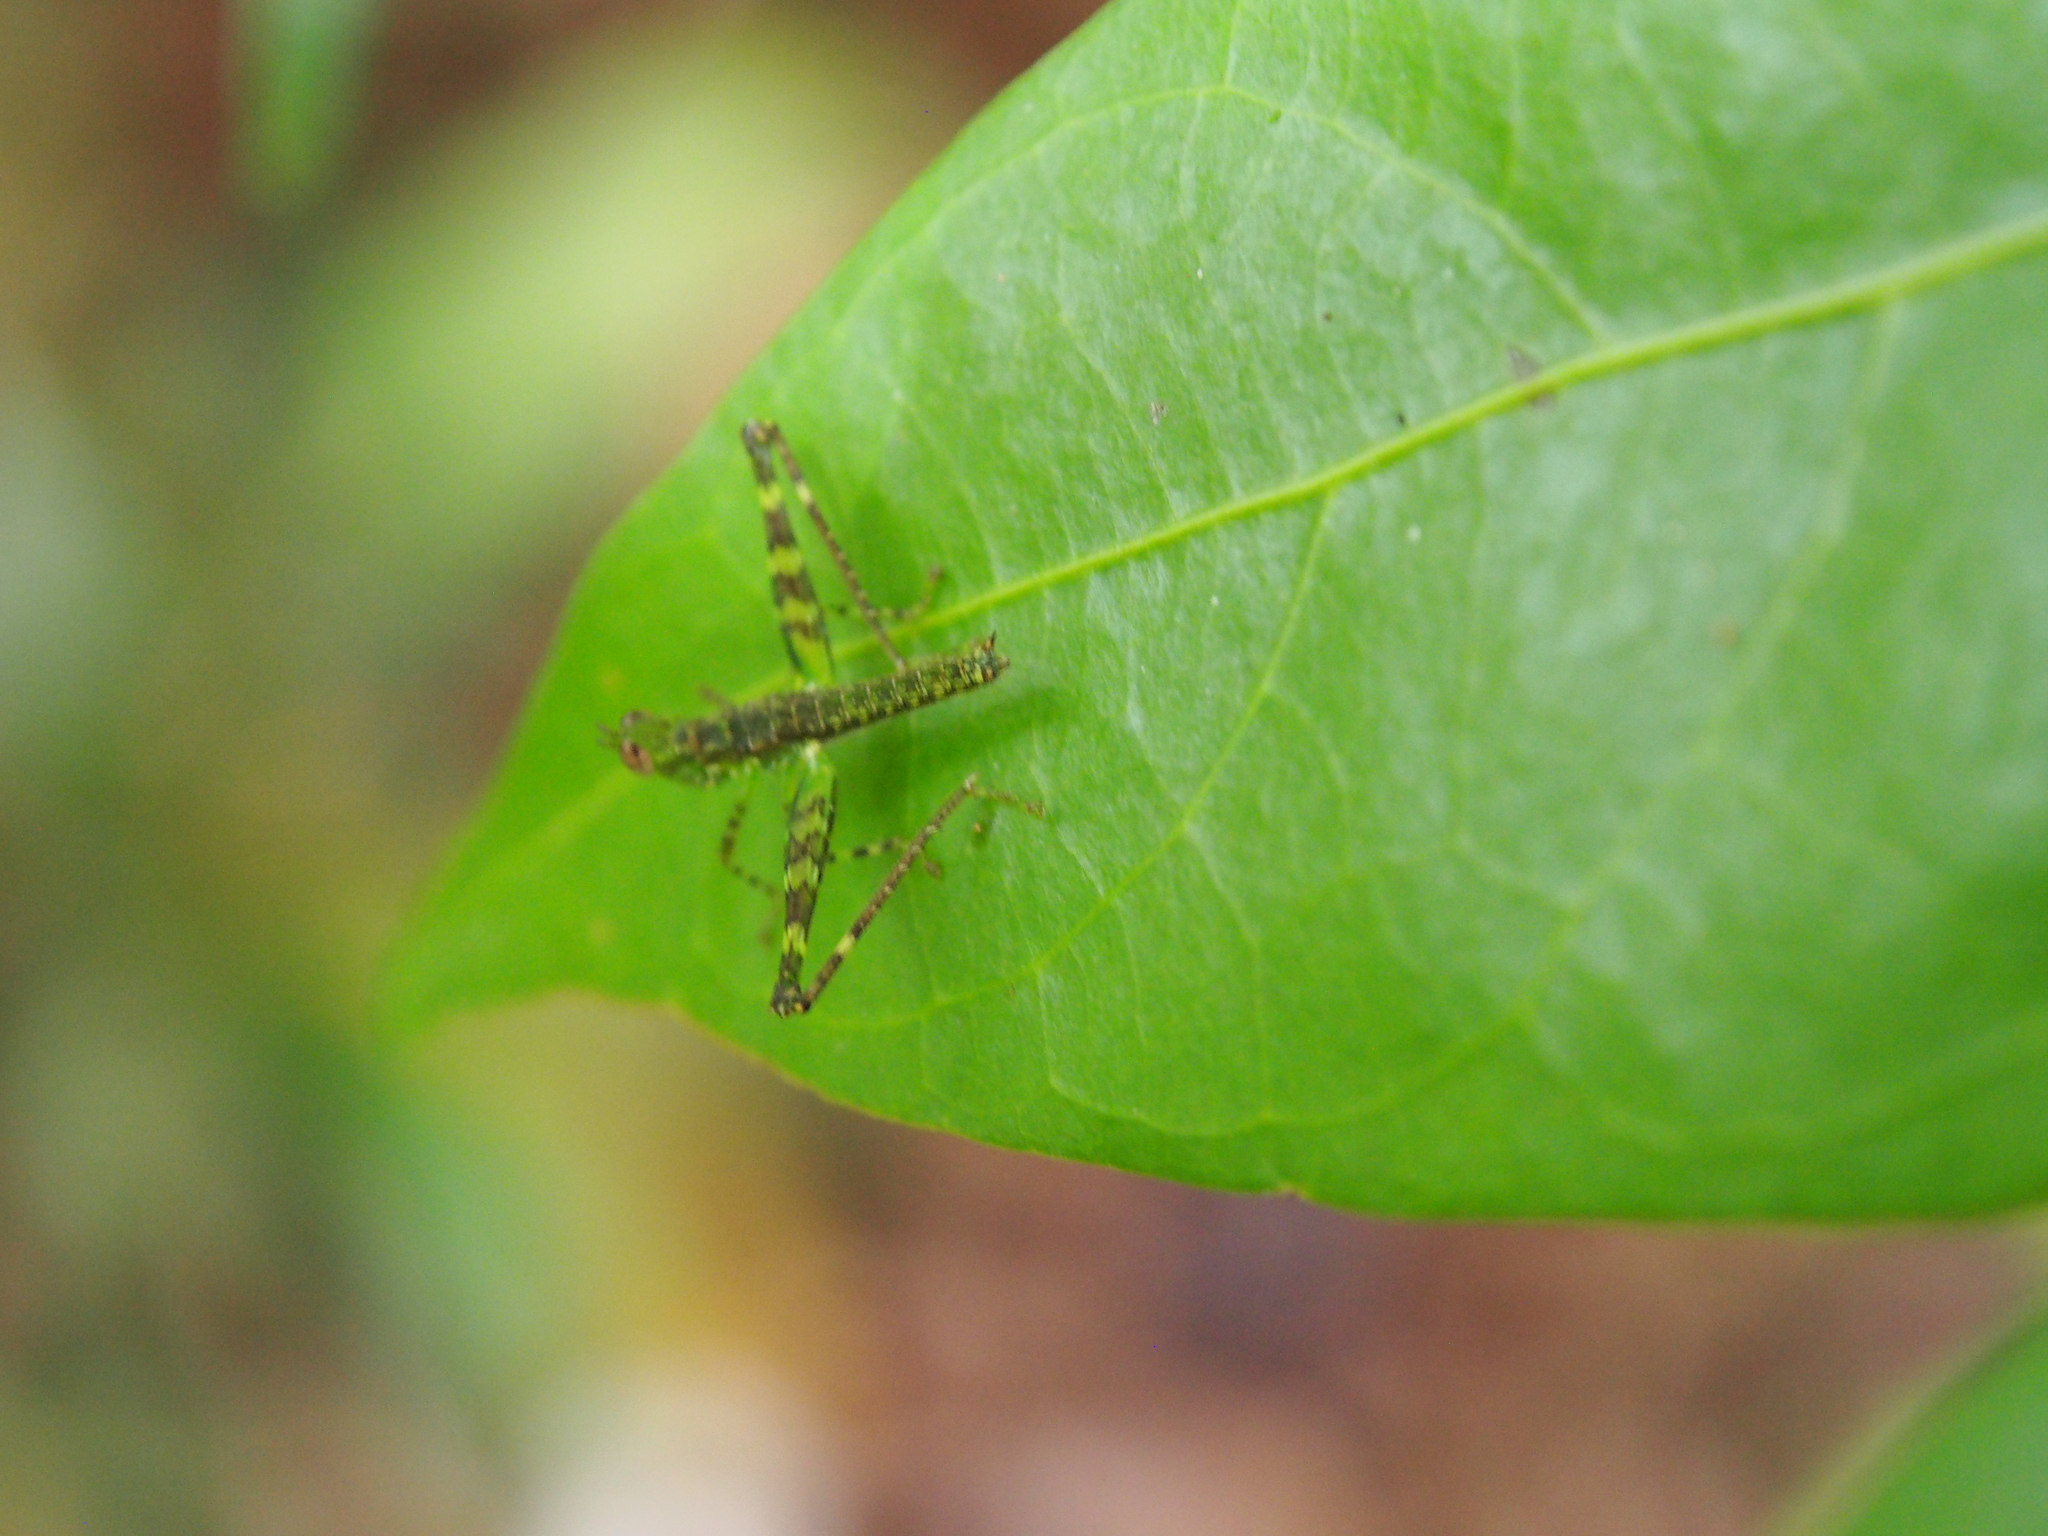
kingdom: Animalia
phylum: Arthropoda
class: Insecta
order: Orthoptera
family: Eumastacidae
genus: Homeomastax
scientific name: Homeomastax robertsi
